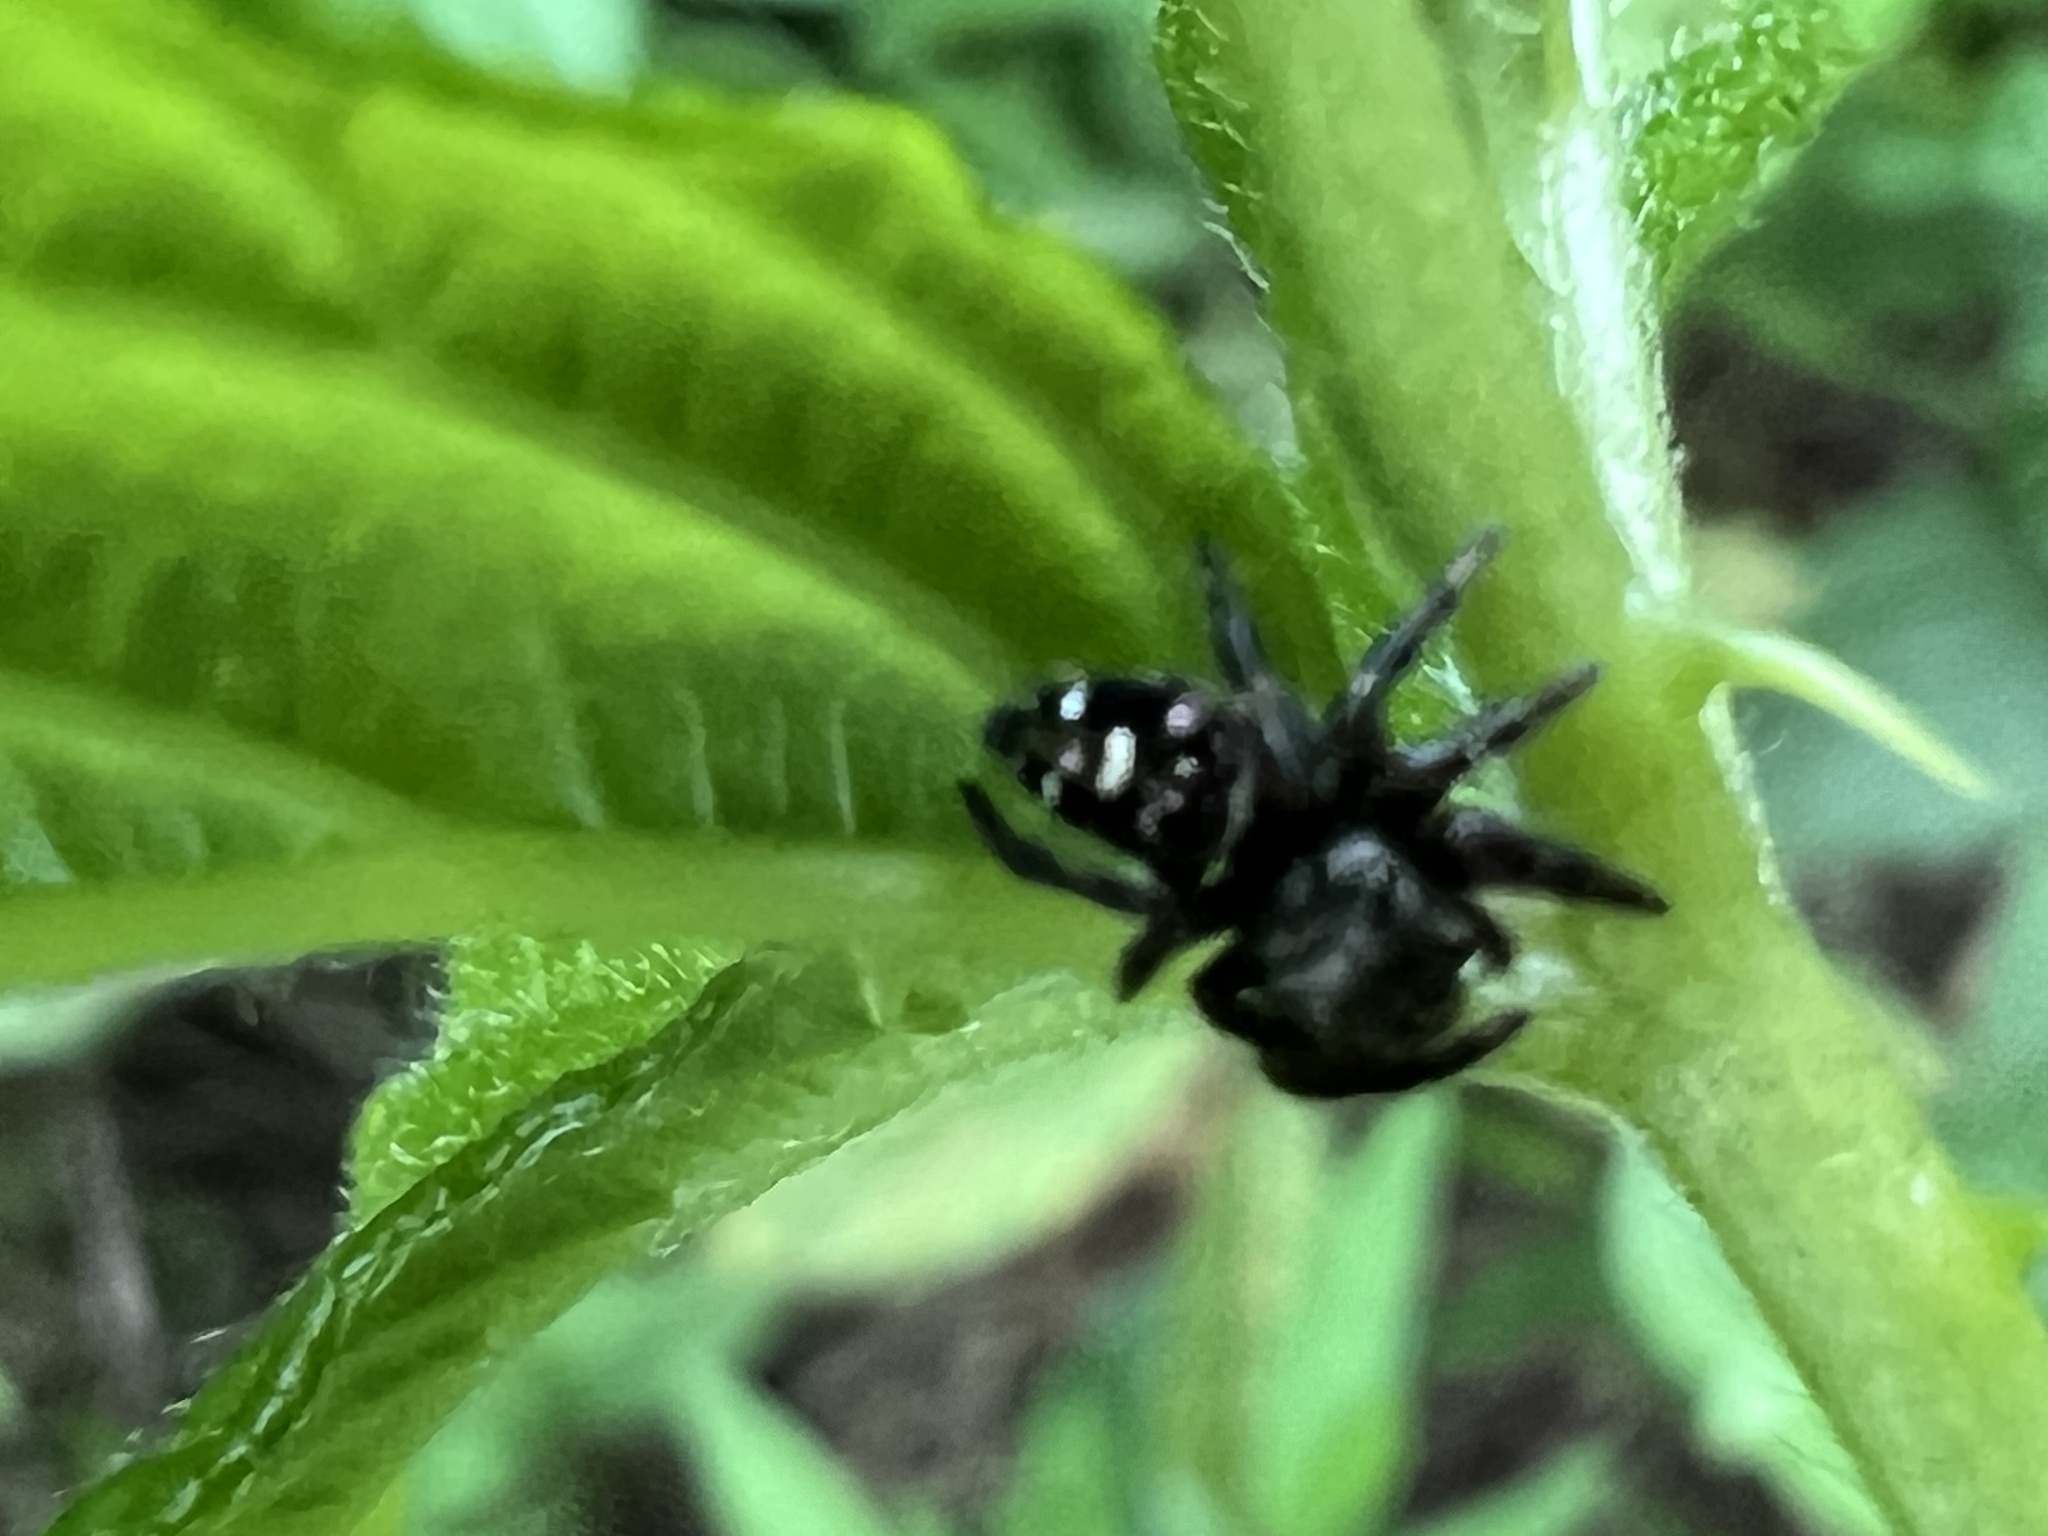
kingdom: Animalia
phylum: Arthropoda
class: Arachnida
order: Araneae
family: Salticidae
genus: Phidippus
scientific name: Phidippus audax
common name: Bold jumper
